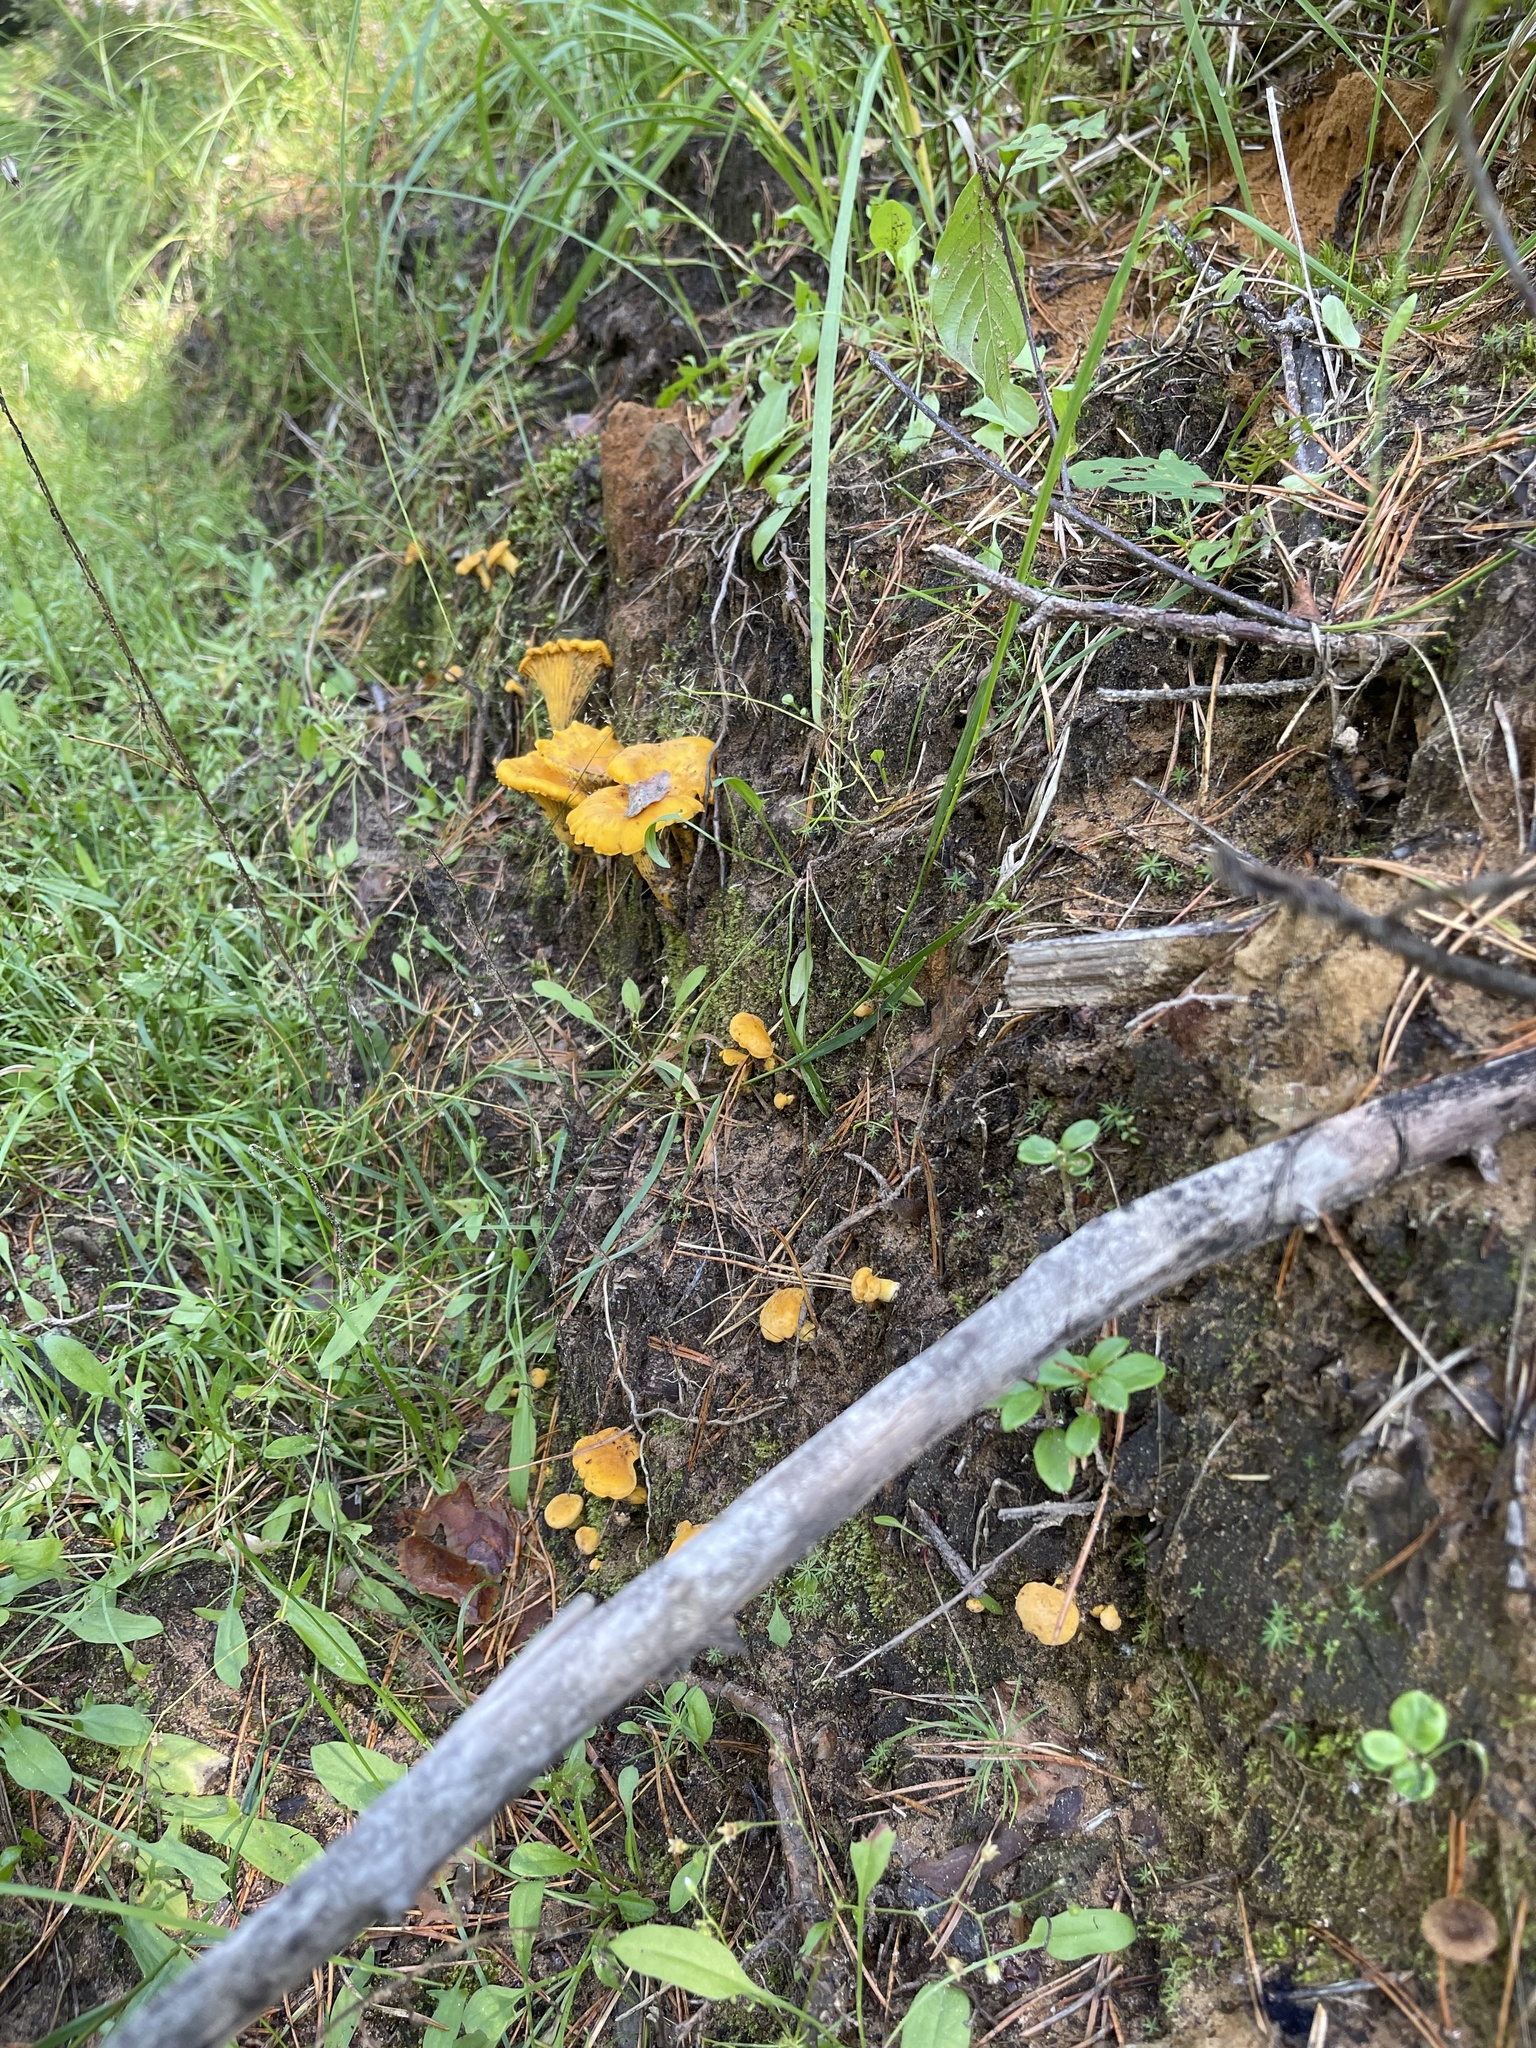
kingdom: Fungi
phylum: Basidiomycota
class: Agaricomycetes
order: Cantharellales
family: Hydnaceae
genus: Cantharellus
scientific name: Cantharellus cibarius
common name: Chanterelle
